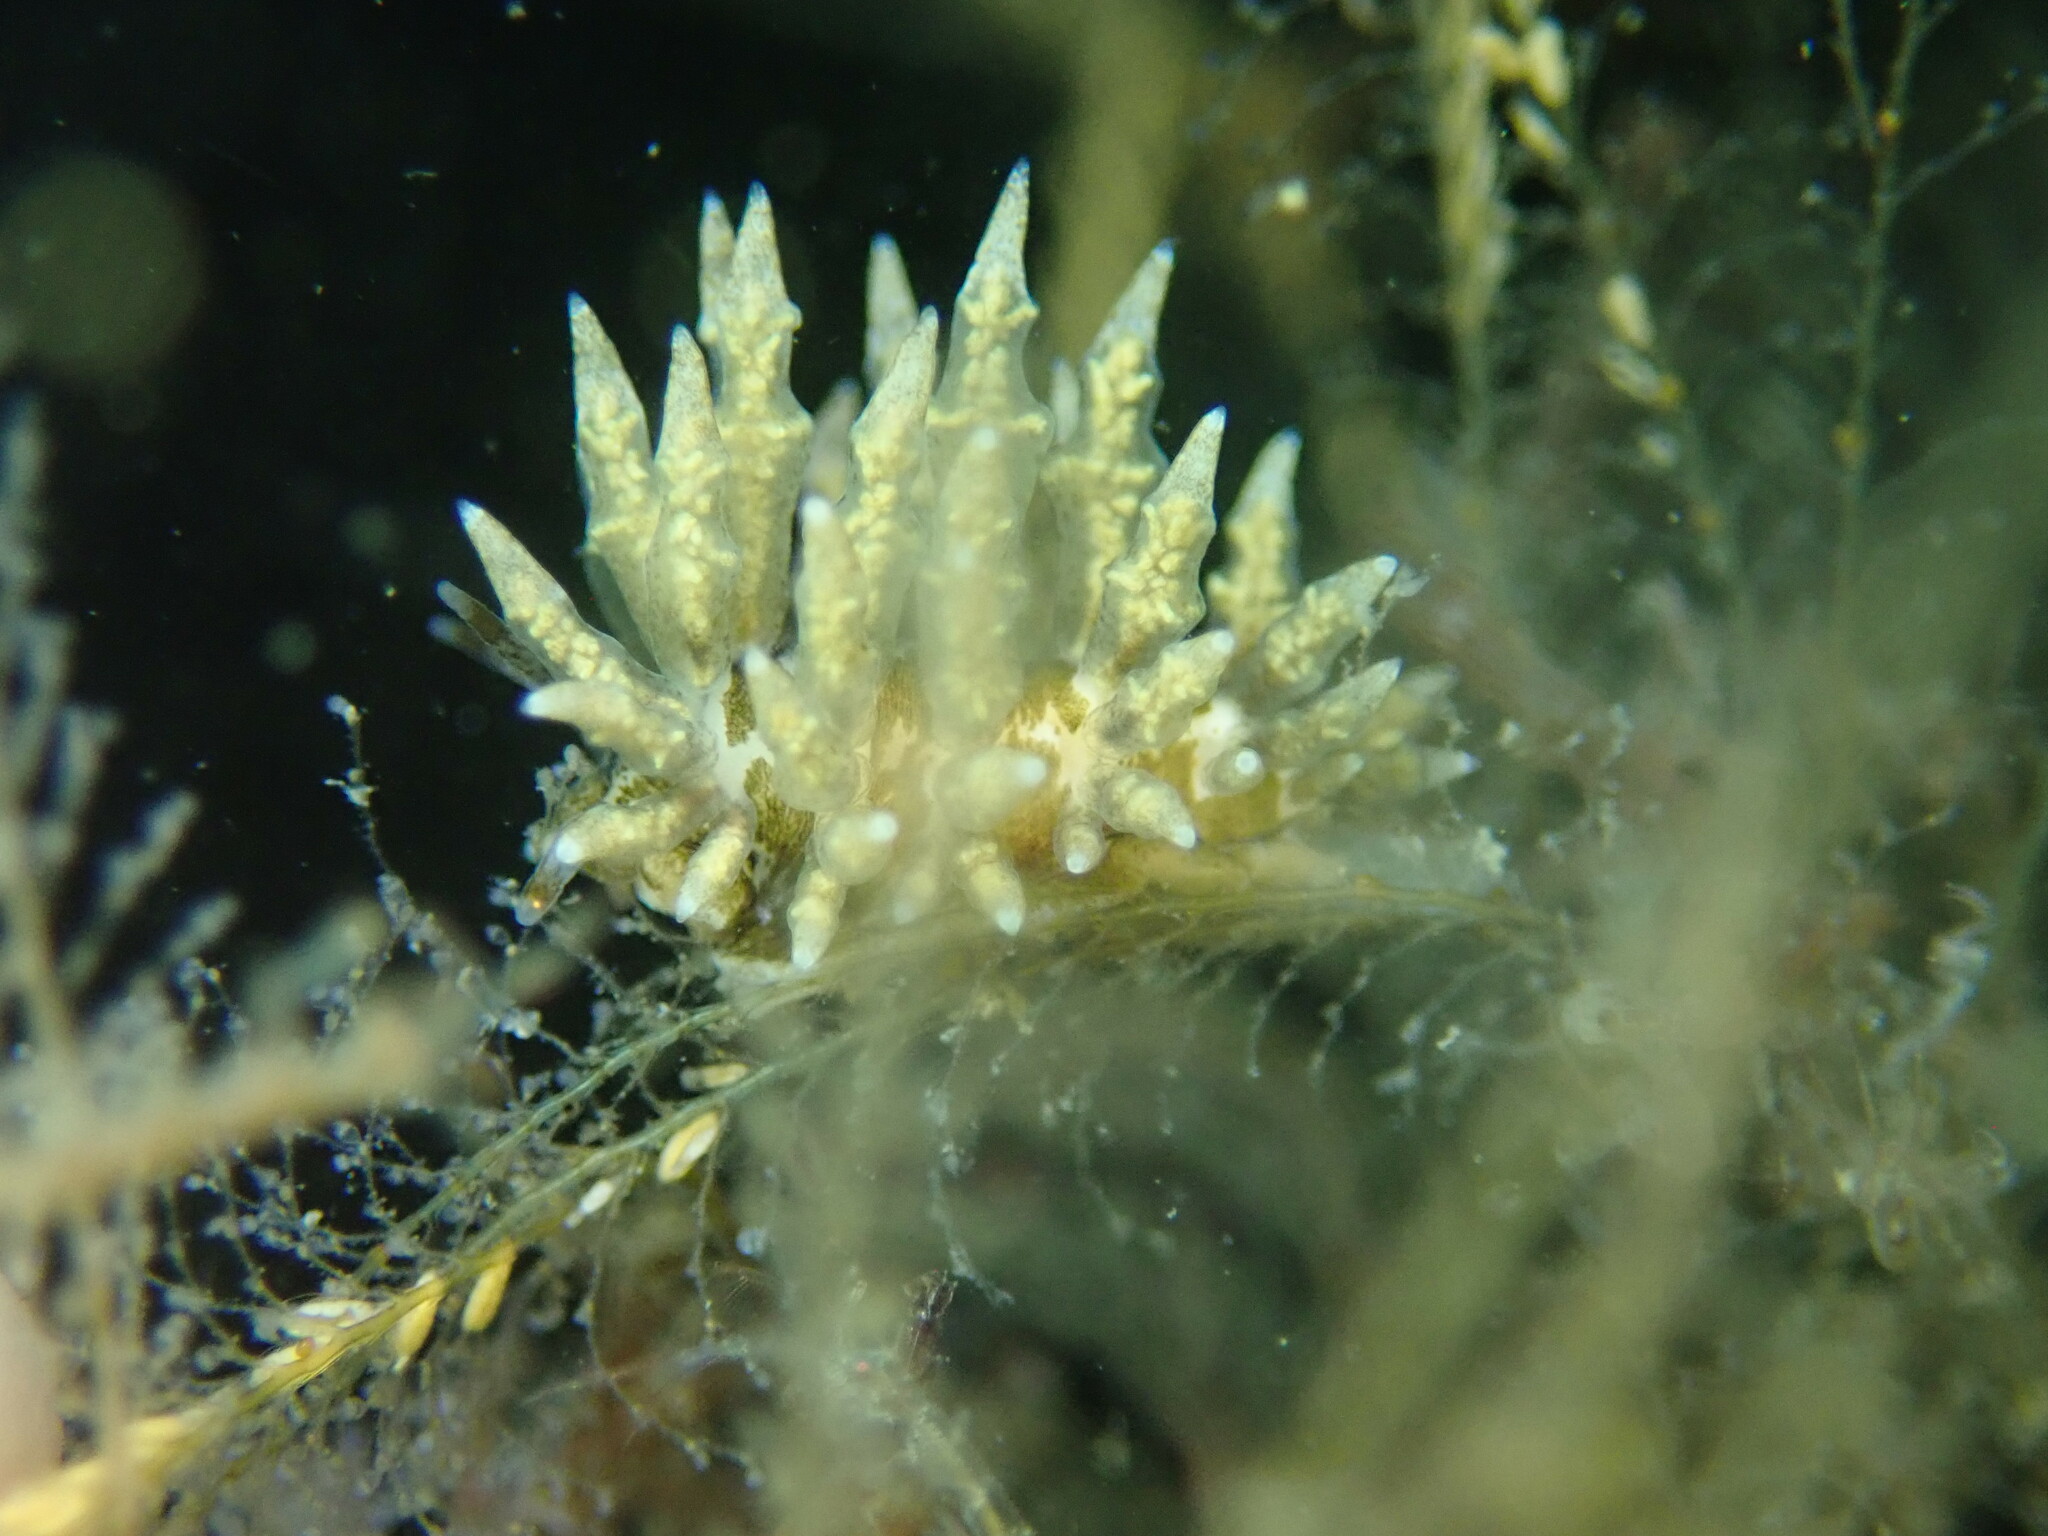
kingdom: Animalia
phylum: Mollusca
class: Gastropoda
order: Nudibranchia
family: Eubranchidae
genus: Eubranchus
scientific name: Eubranchus rustyus
